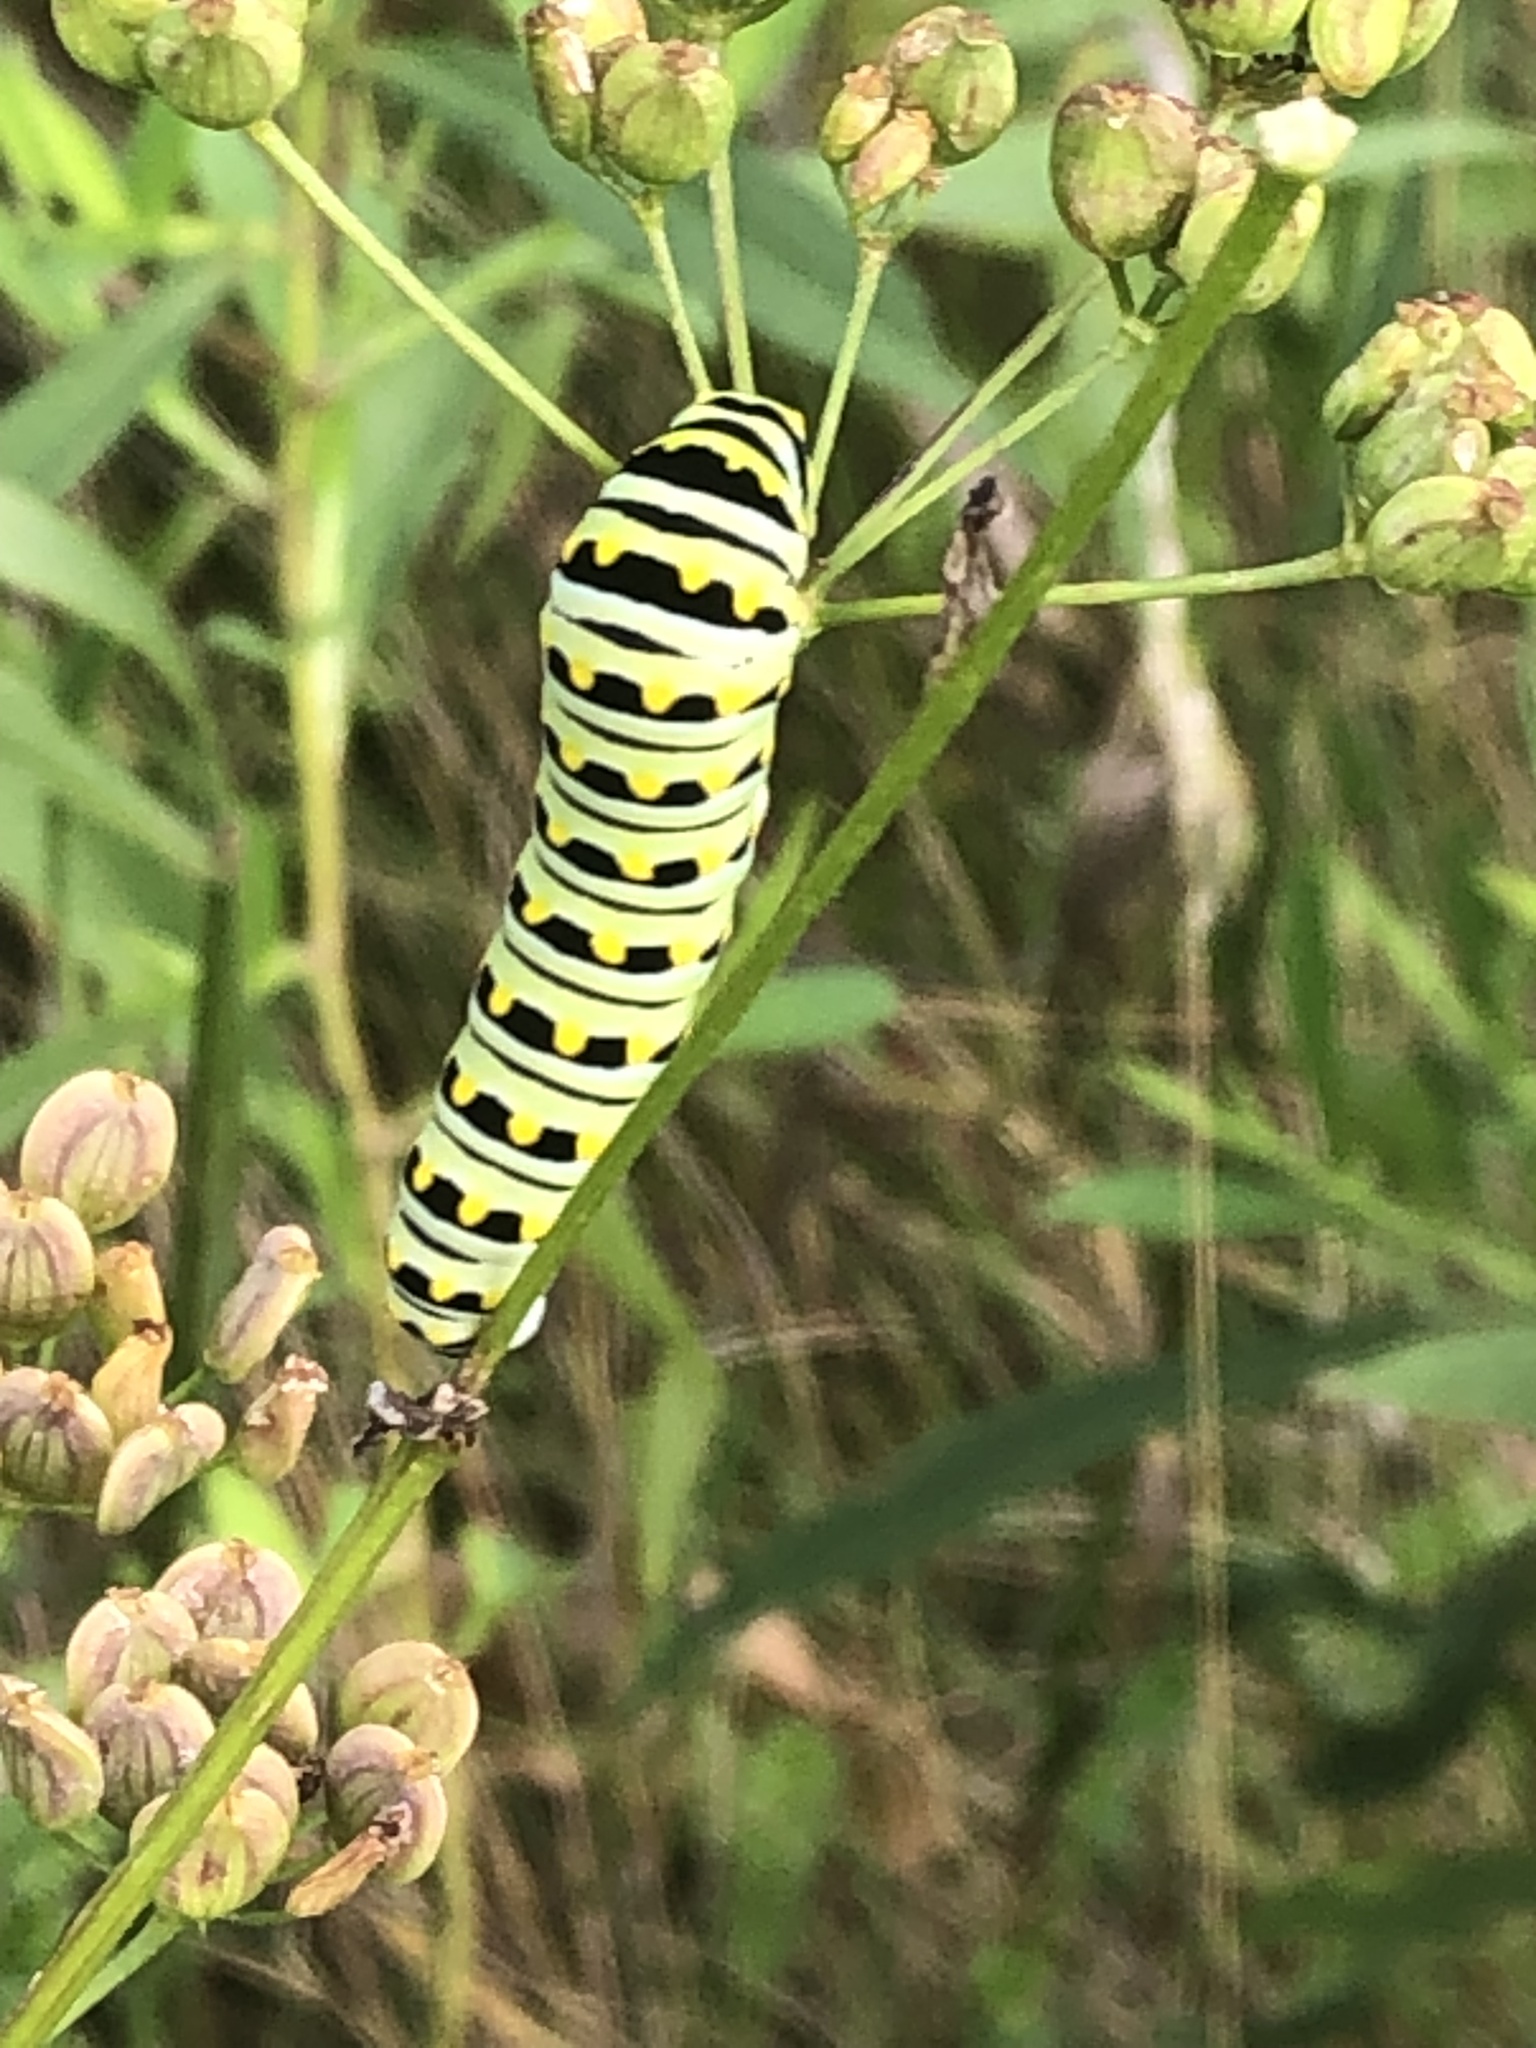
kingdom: Animalia
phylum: Arthropoda
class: Insecta
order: Lepidoptera
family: Papilionidae
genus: Papilio
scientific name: Papilio polyxenes
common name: Black swallowtail
